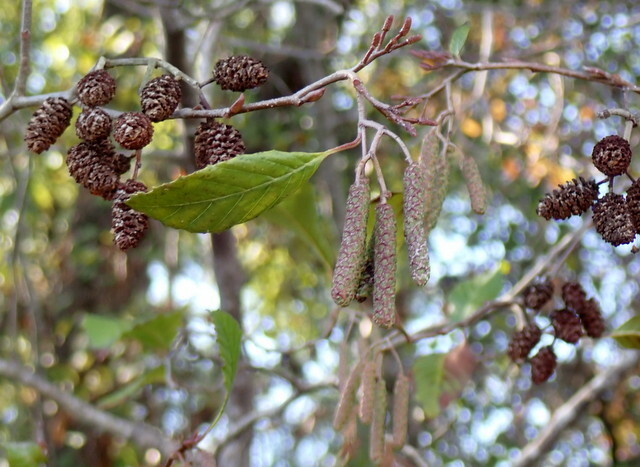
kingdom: Plantae
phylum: Tracheophyta
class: Magnoliopsida
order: Fagales
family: Betulaceae
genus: Alnus
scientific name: Alnus serrulata
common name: Hazel alder
